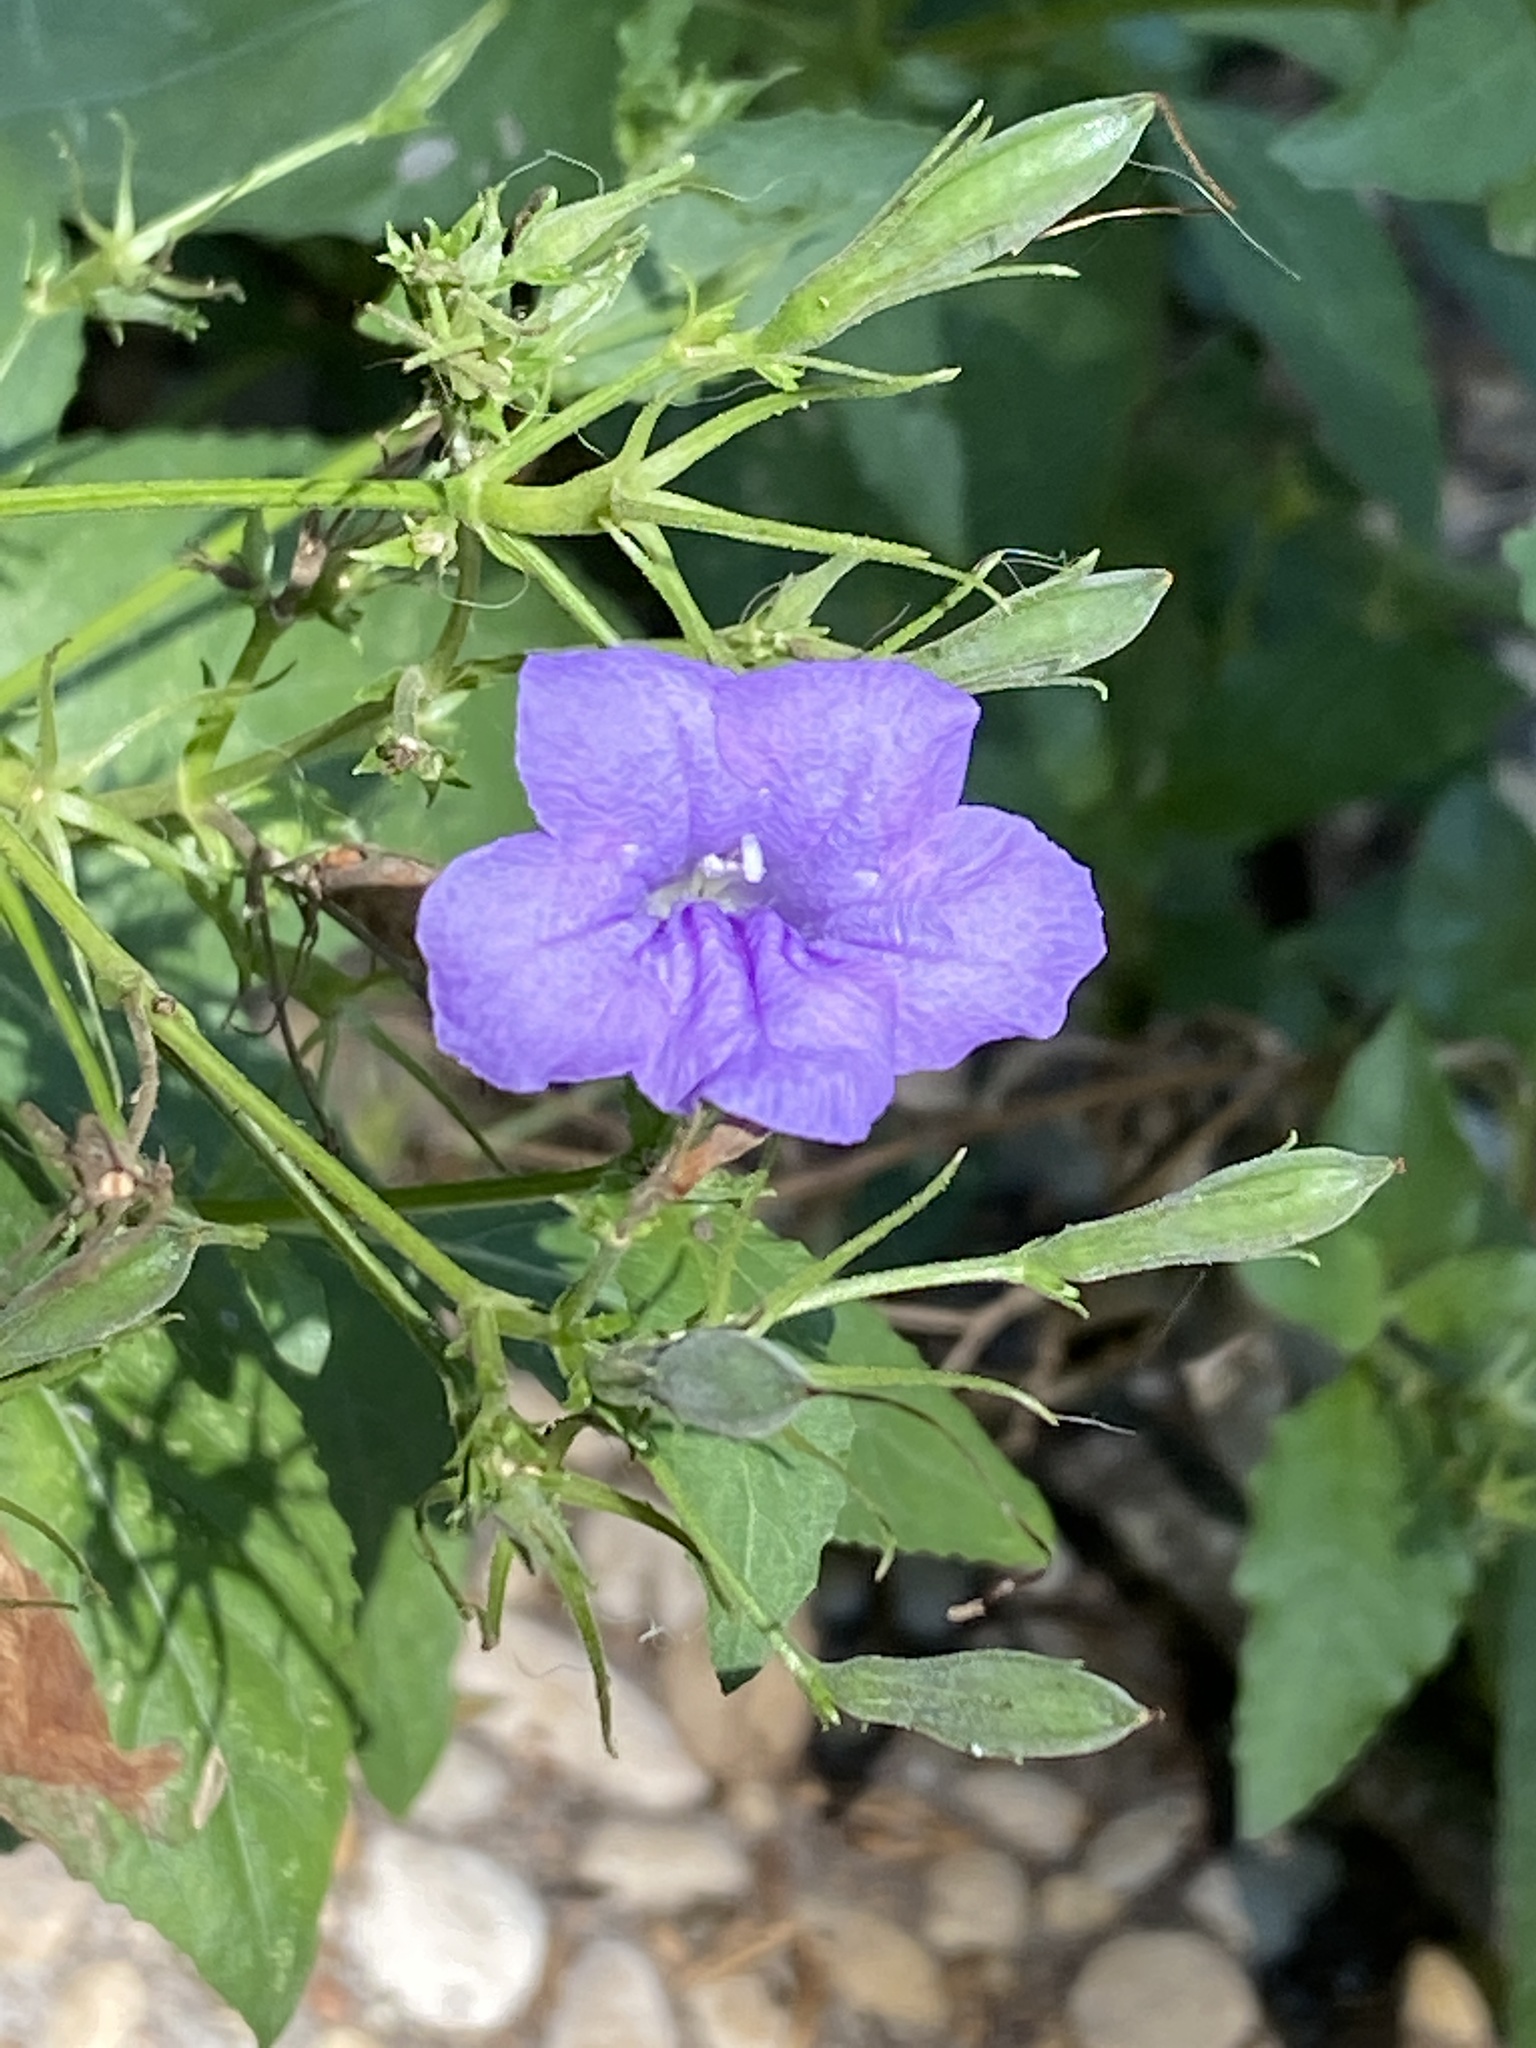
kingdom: Plantae
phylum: Tracheophyta
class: Magnoliopsida
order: Lamiales
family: Acanthaceae
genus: Ruellia
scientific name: Ruellia ciliatiflora
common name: Hairyflower wild petunia
